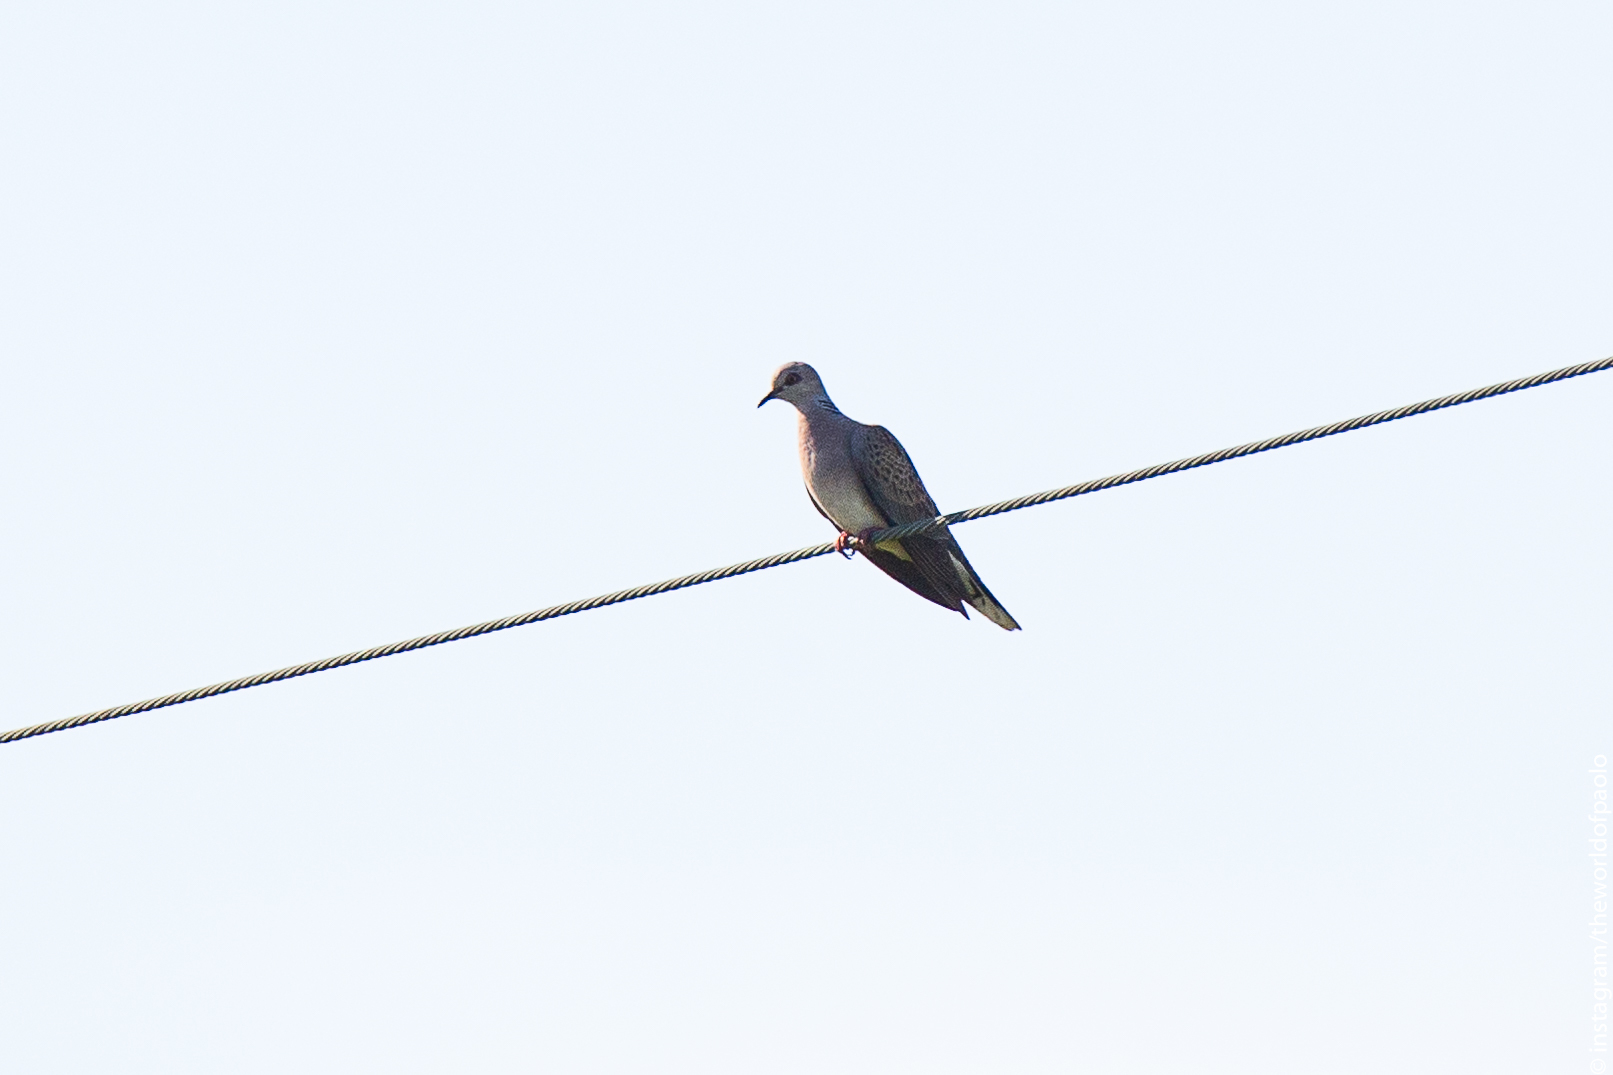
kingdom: Animalia
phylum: Chordata
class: Aves
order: Columbiformes
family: Columbidae
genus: Streptopelia
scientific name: Streptopelia turtur
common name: European turtle dove
